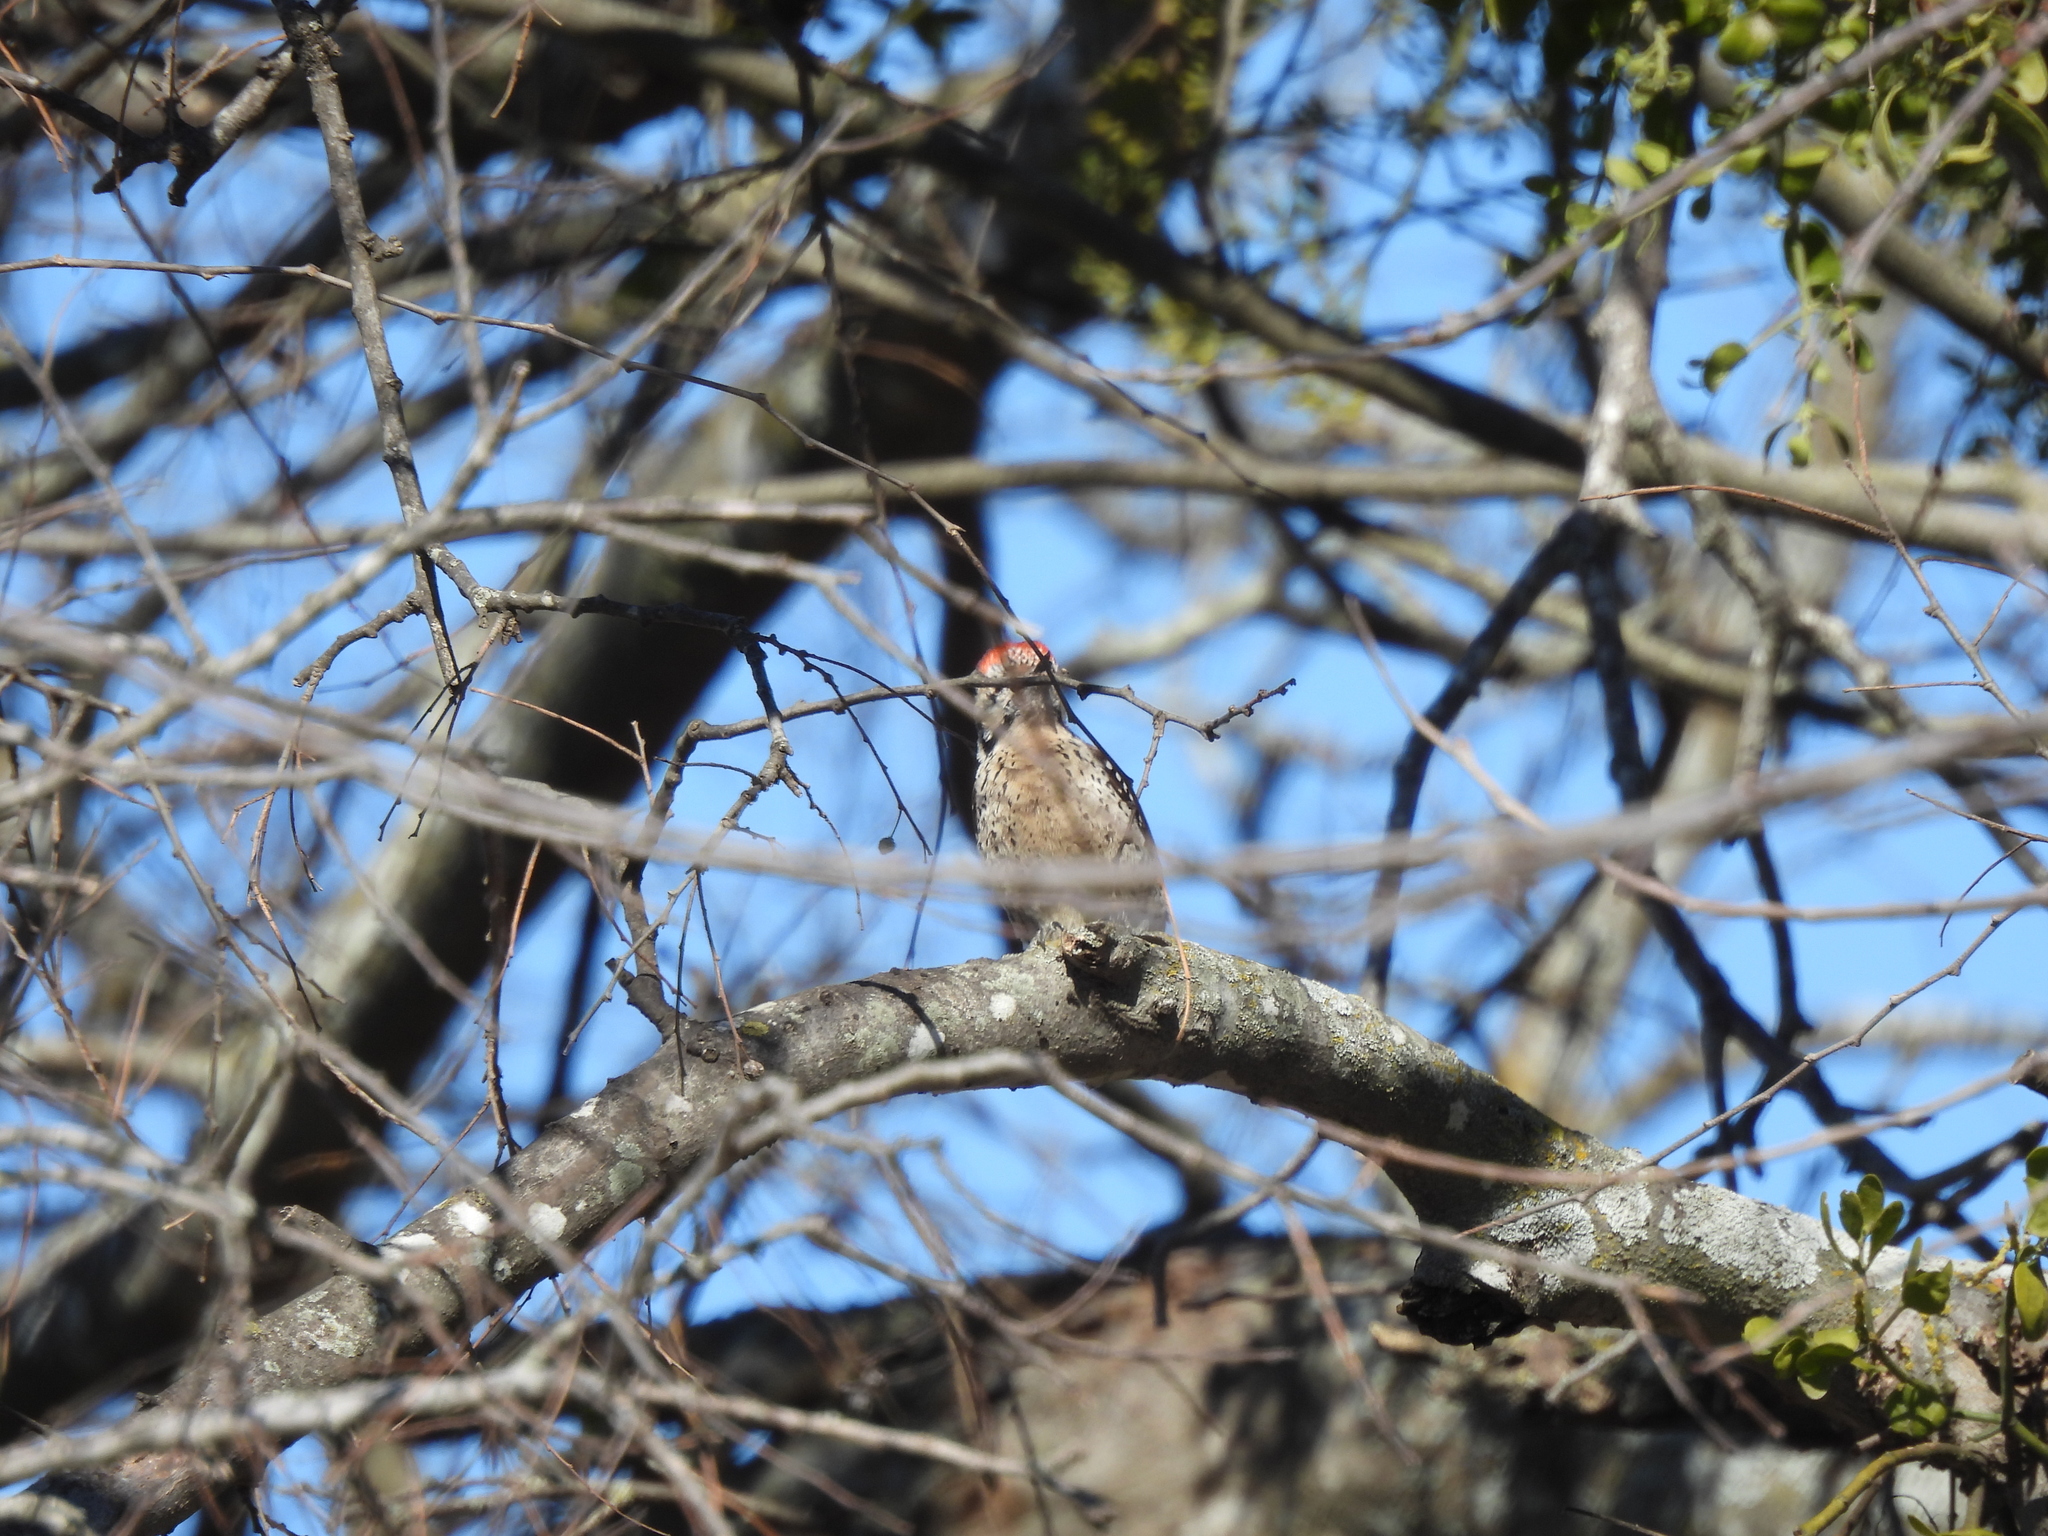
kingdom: Animalia
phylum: Chordata
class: Aves
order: Piciformes
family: Picidae
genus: Dryobates
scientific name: Dryobates scalaris
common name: Ladder-backed woodpecker
